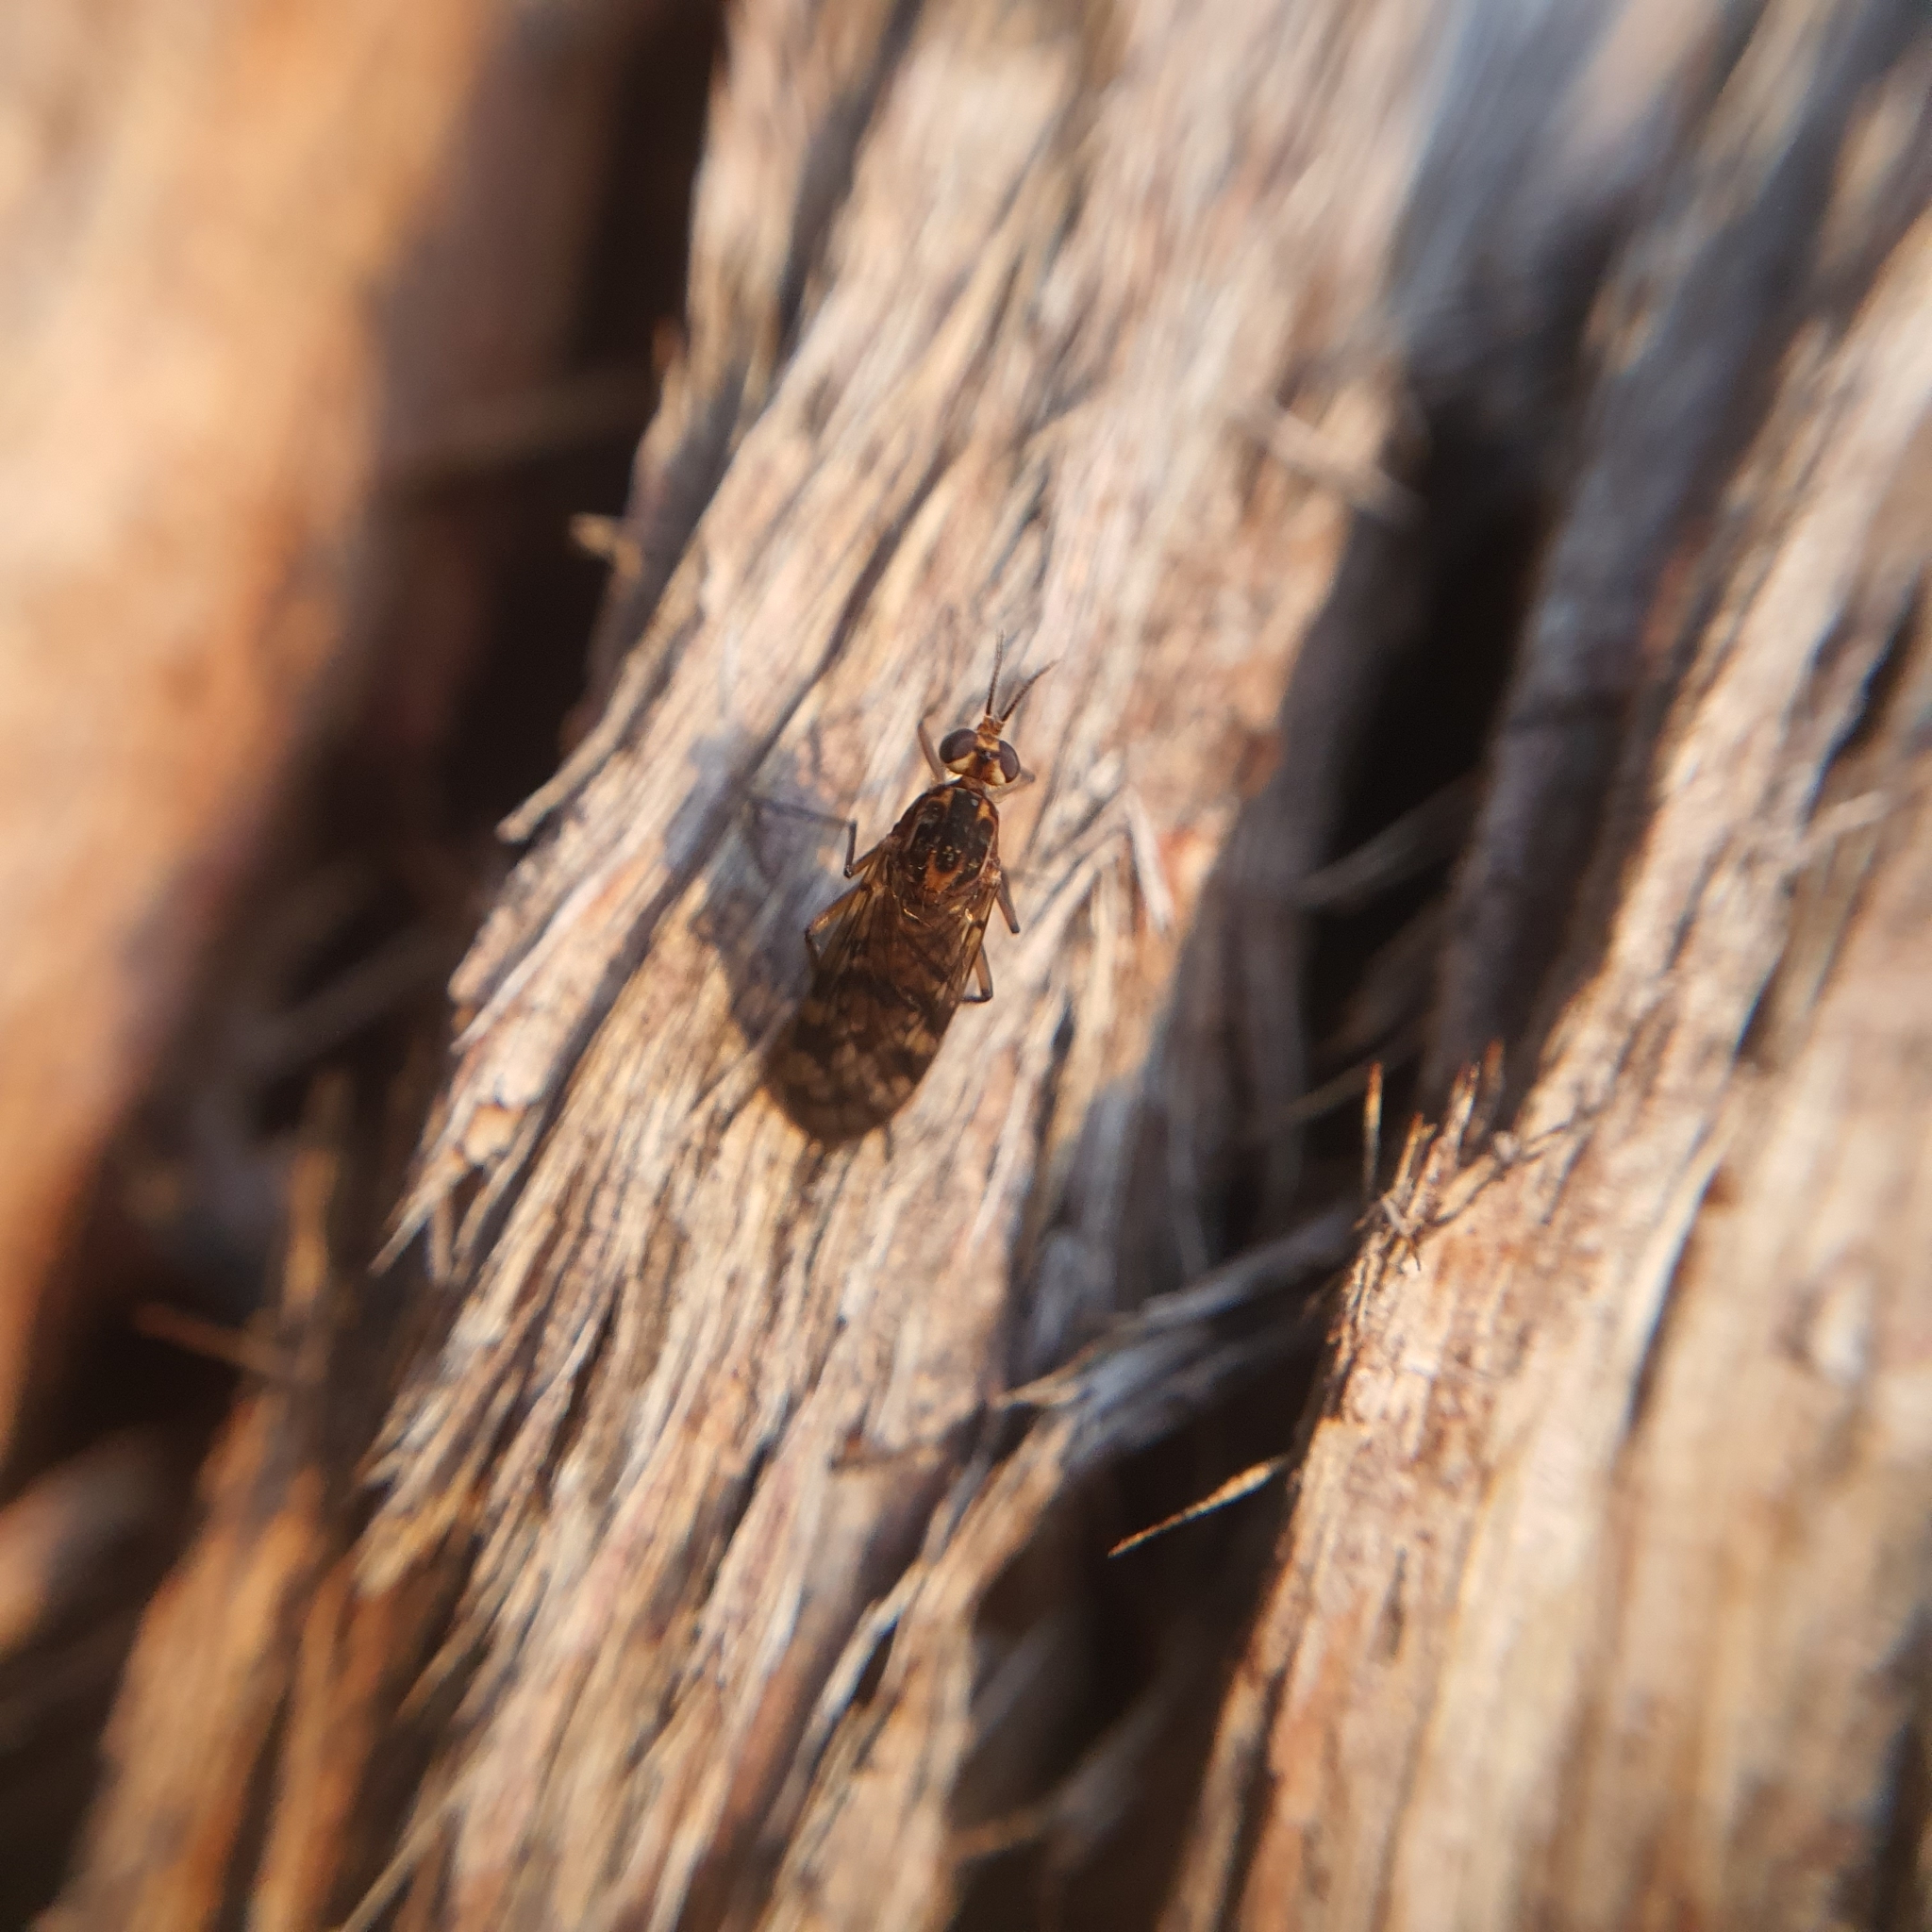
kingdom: Animalia
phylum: Arthropoda
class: Insecta
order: Diptera
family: Anisopodidae
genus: Sylvicola
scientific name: Sylvicola dubius
